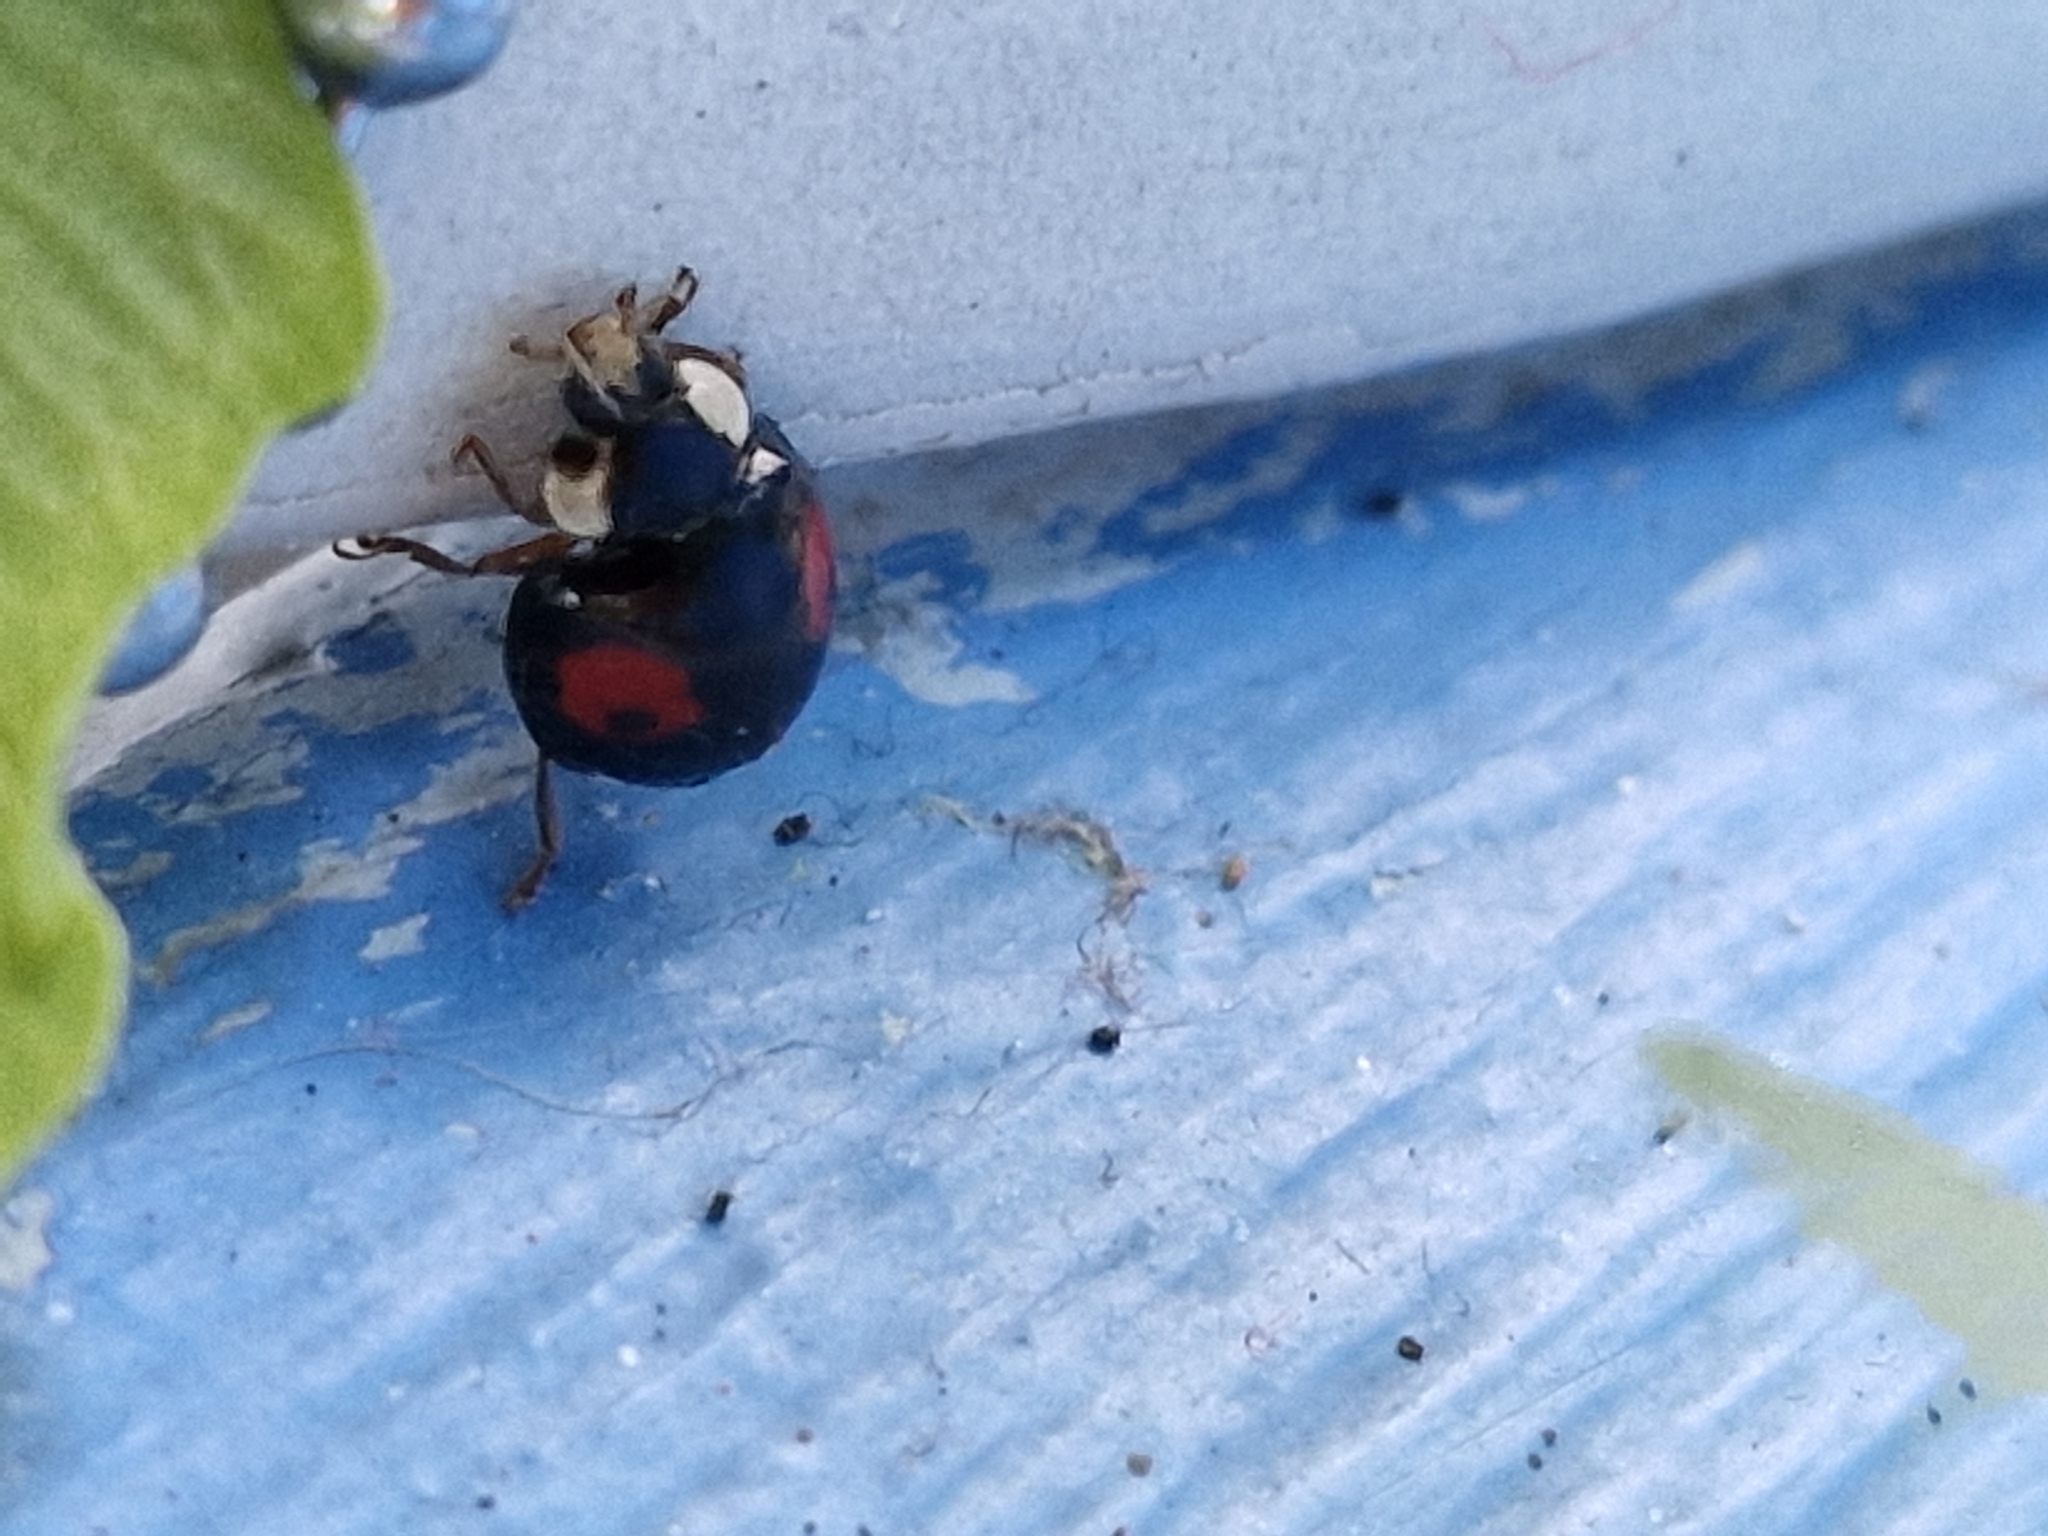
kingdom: Animalia
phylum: Arthropoda
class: Insecta
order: Coleoptera
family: Coccinellidae
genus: Harmonia
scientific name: Harmonia axyridis
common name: Harlequin ladybird
